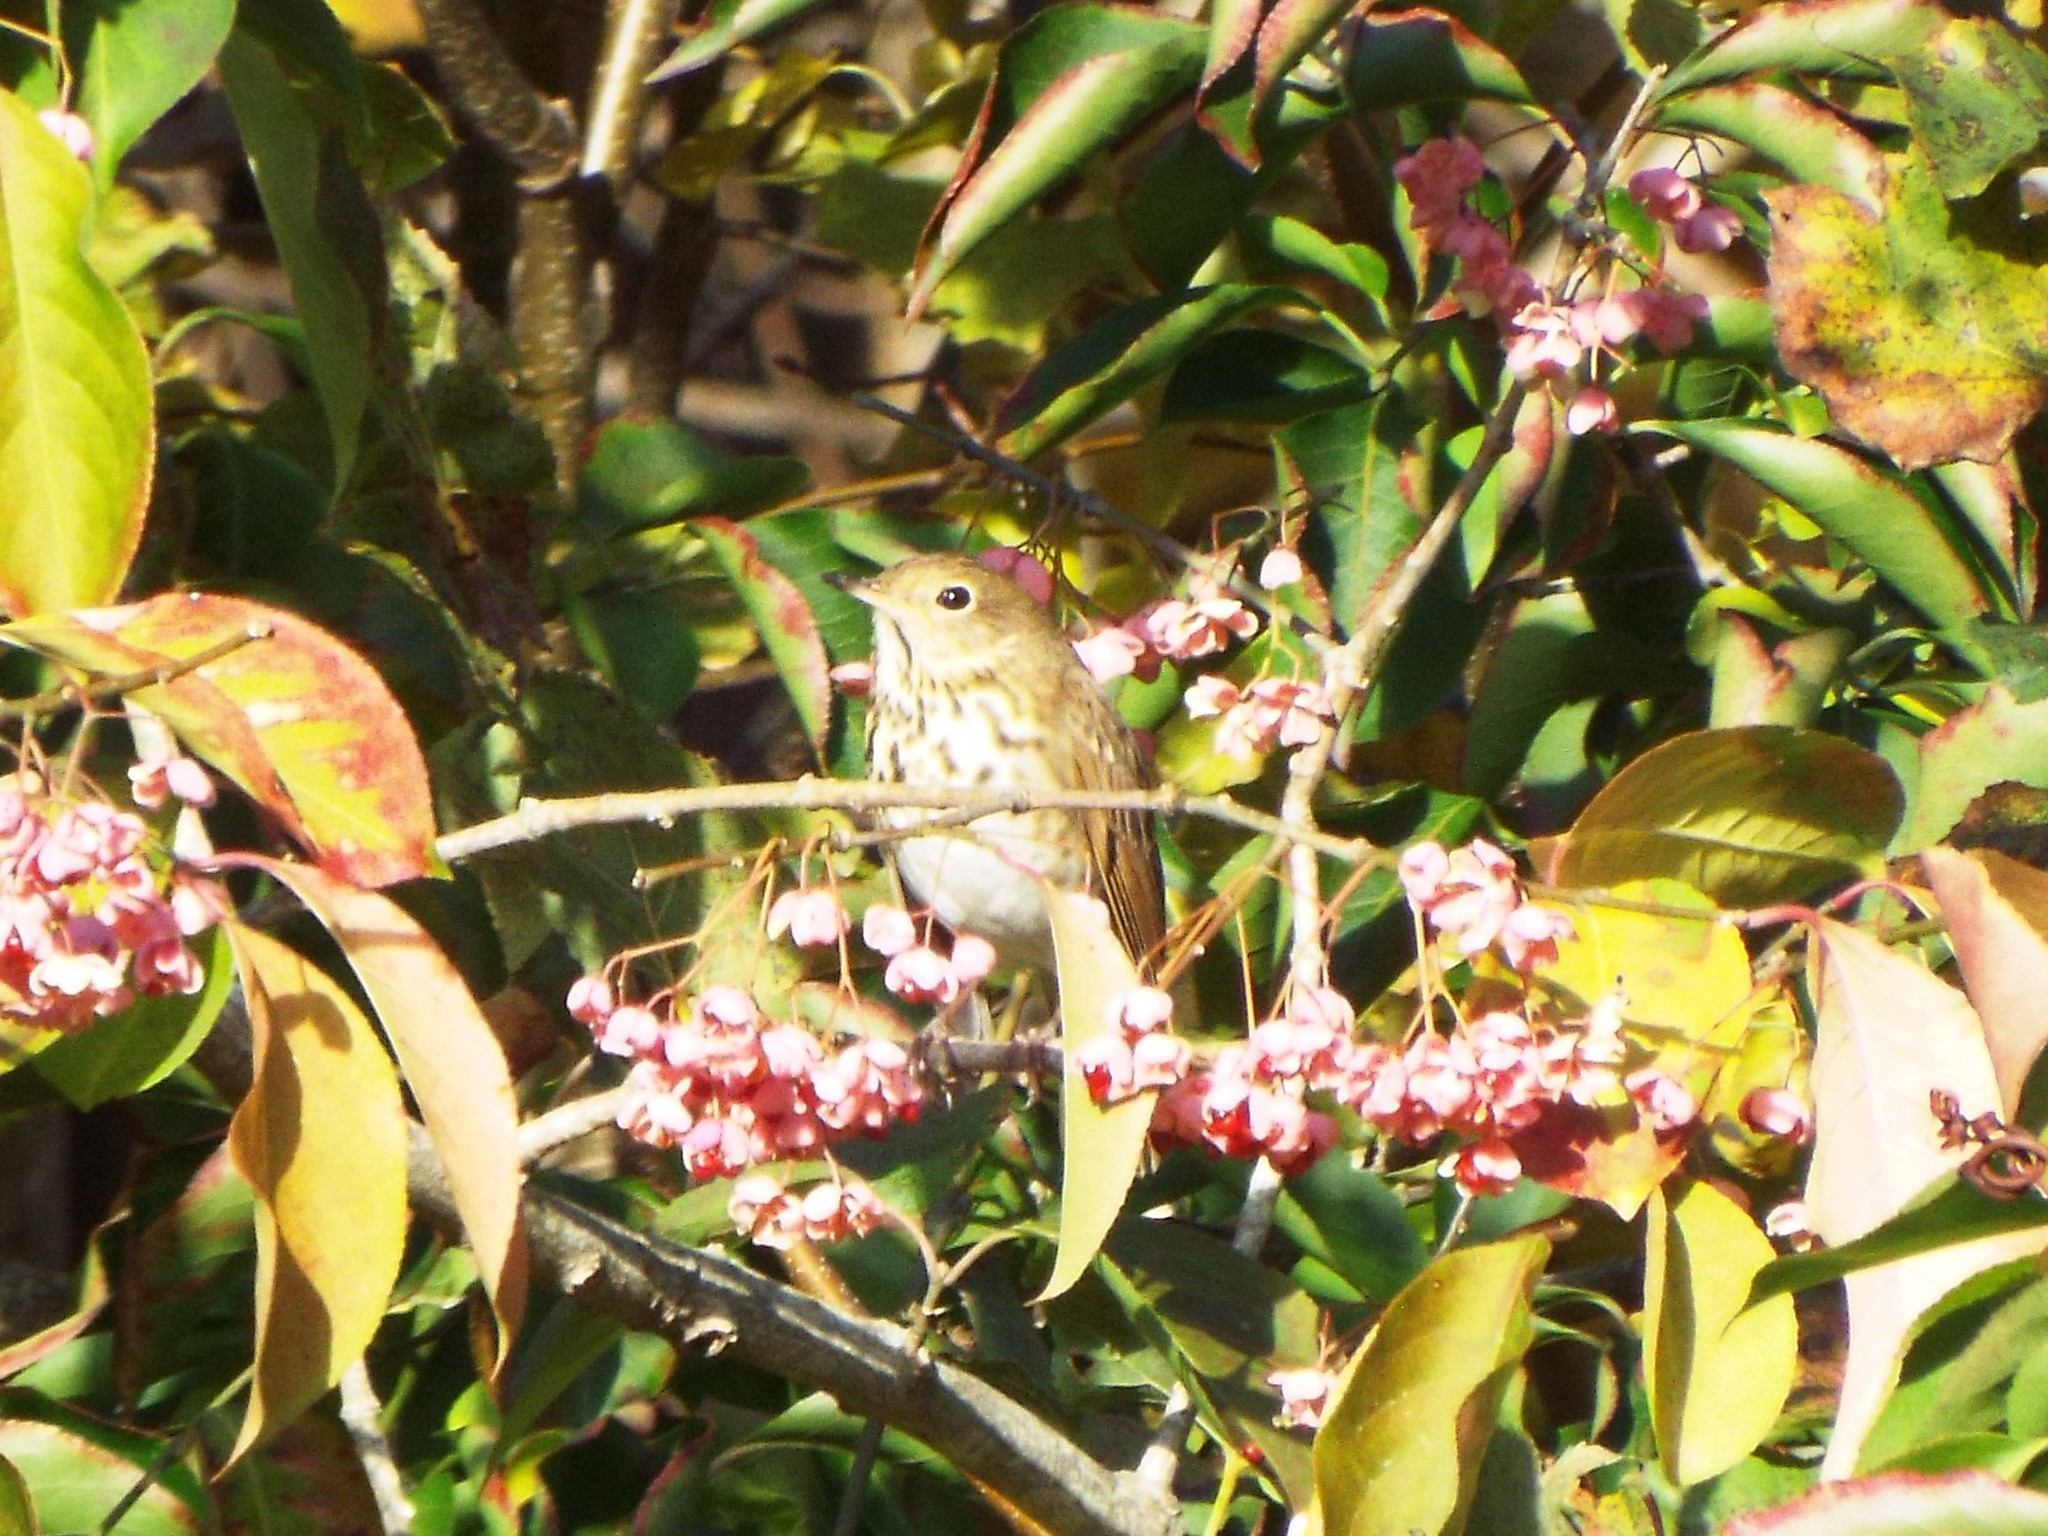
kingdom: Animalia
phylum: Chordata
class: Aves
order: Passeriformes
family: Turdidae
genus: Catharus
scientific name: Catharus guttatus
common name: Hermit thrush
